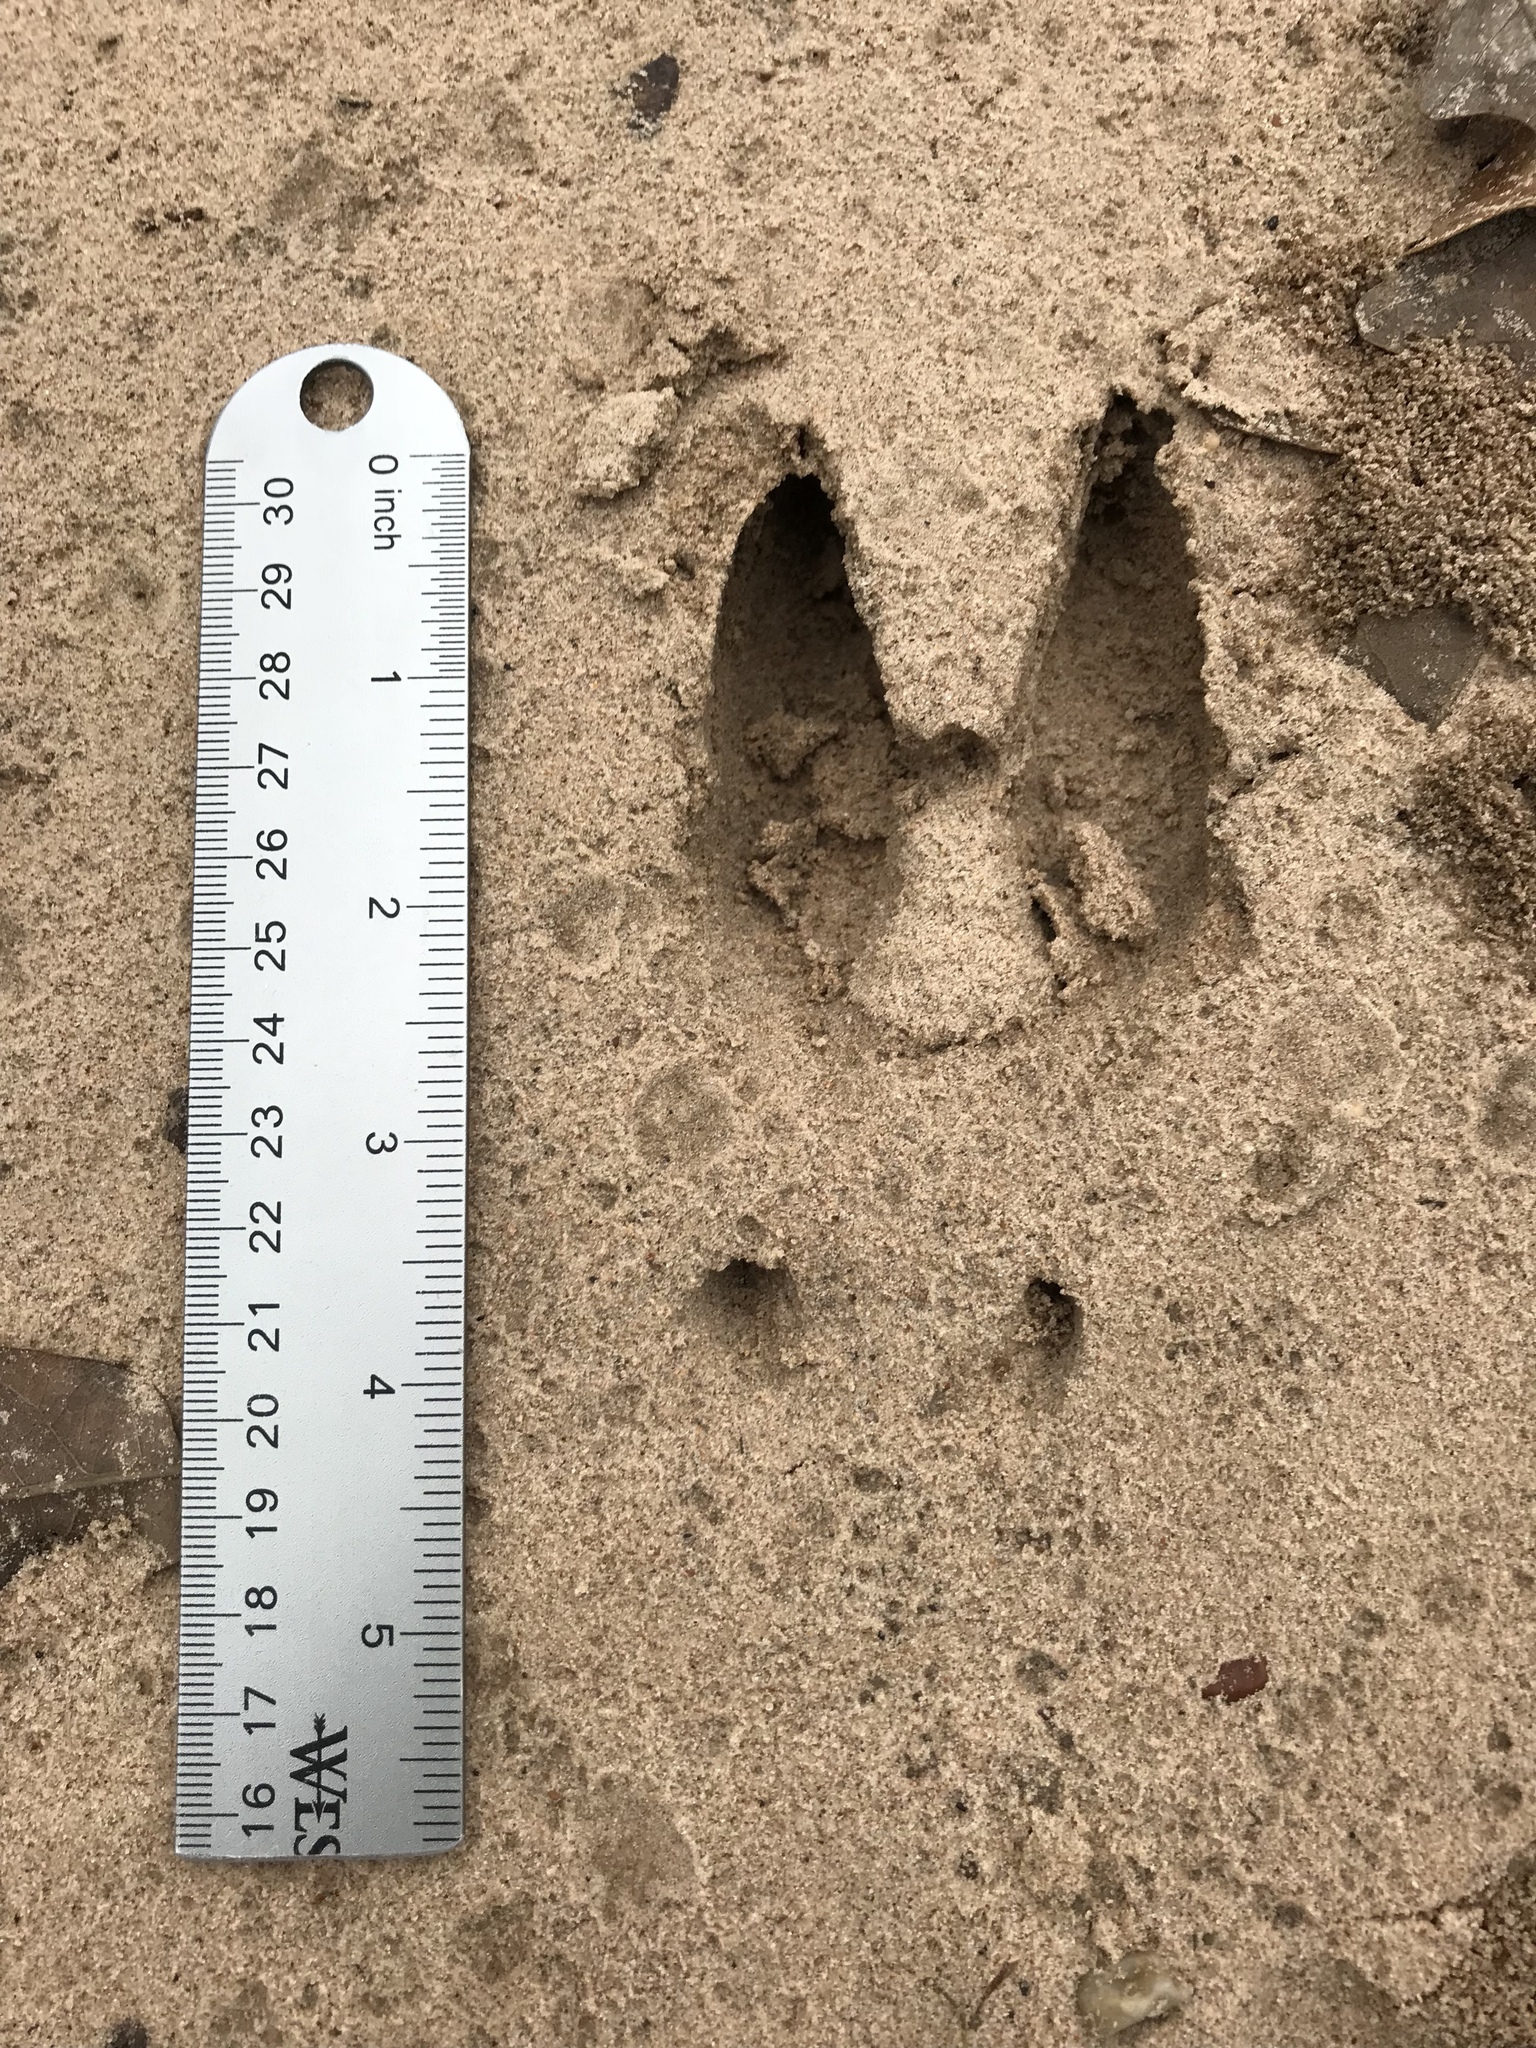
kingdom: Animalia
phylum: Chordata
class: Mammalia
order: Artiodactyla
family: Cervidae
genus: Odocoileus
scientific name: Odocoileus virginianus
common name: White-tailed deer
